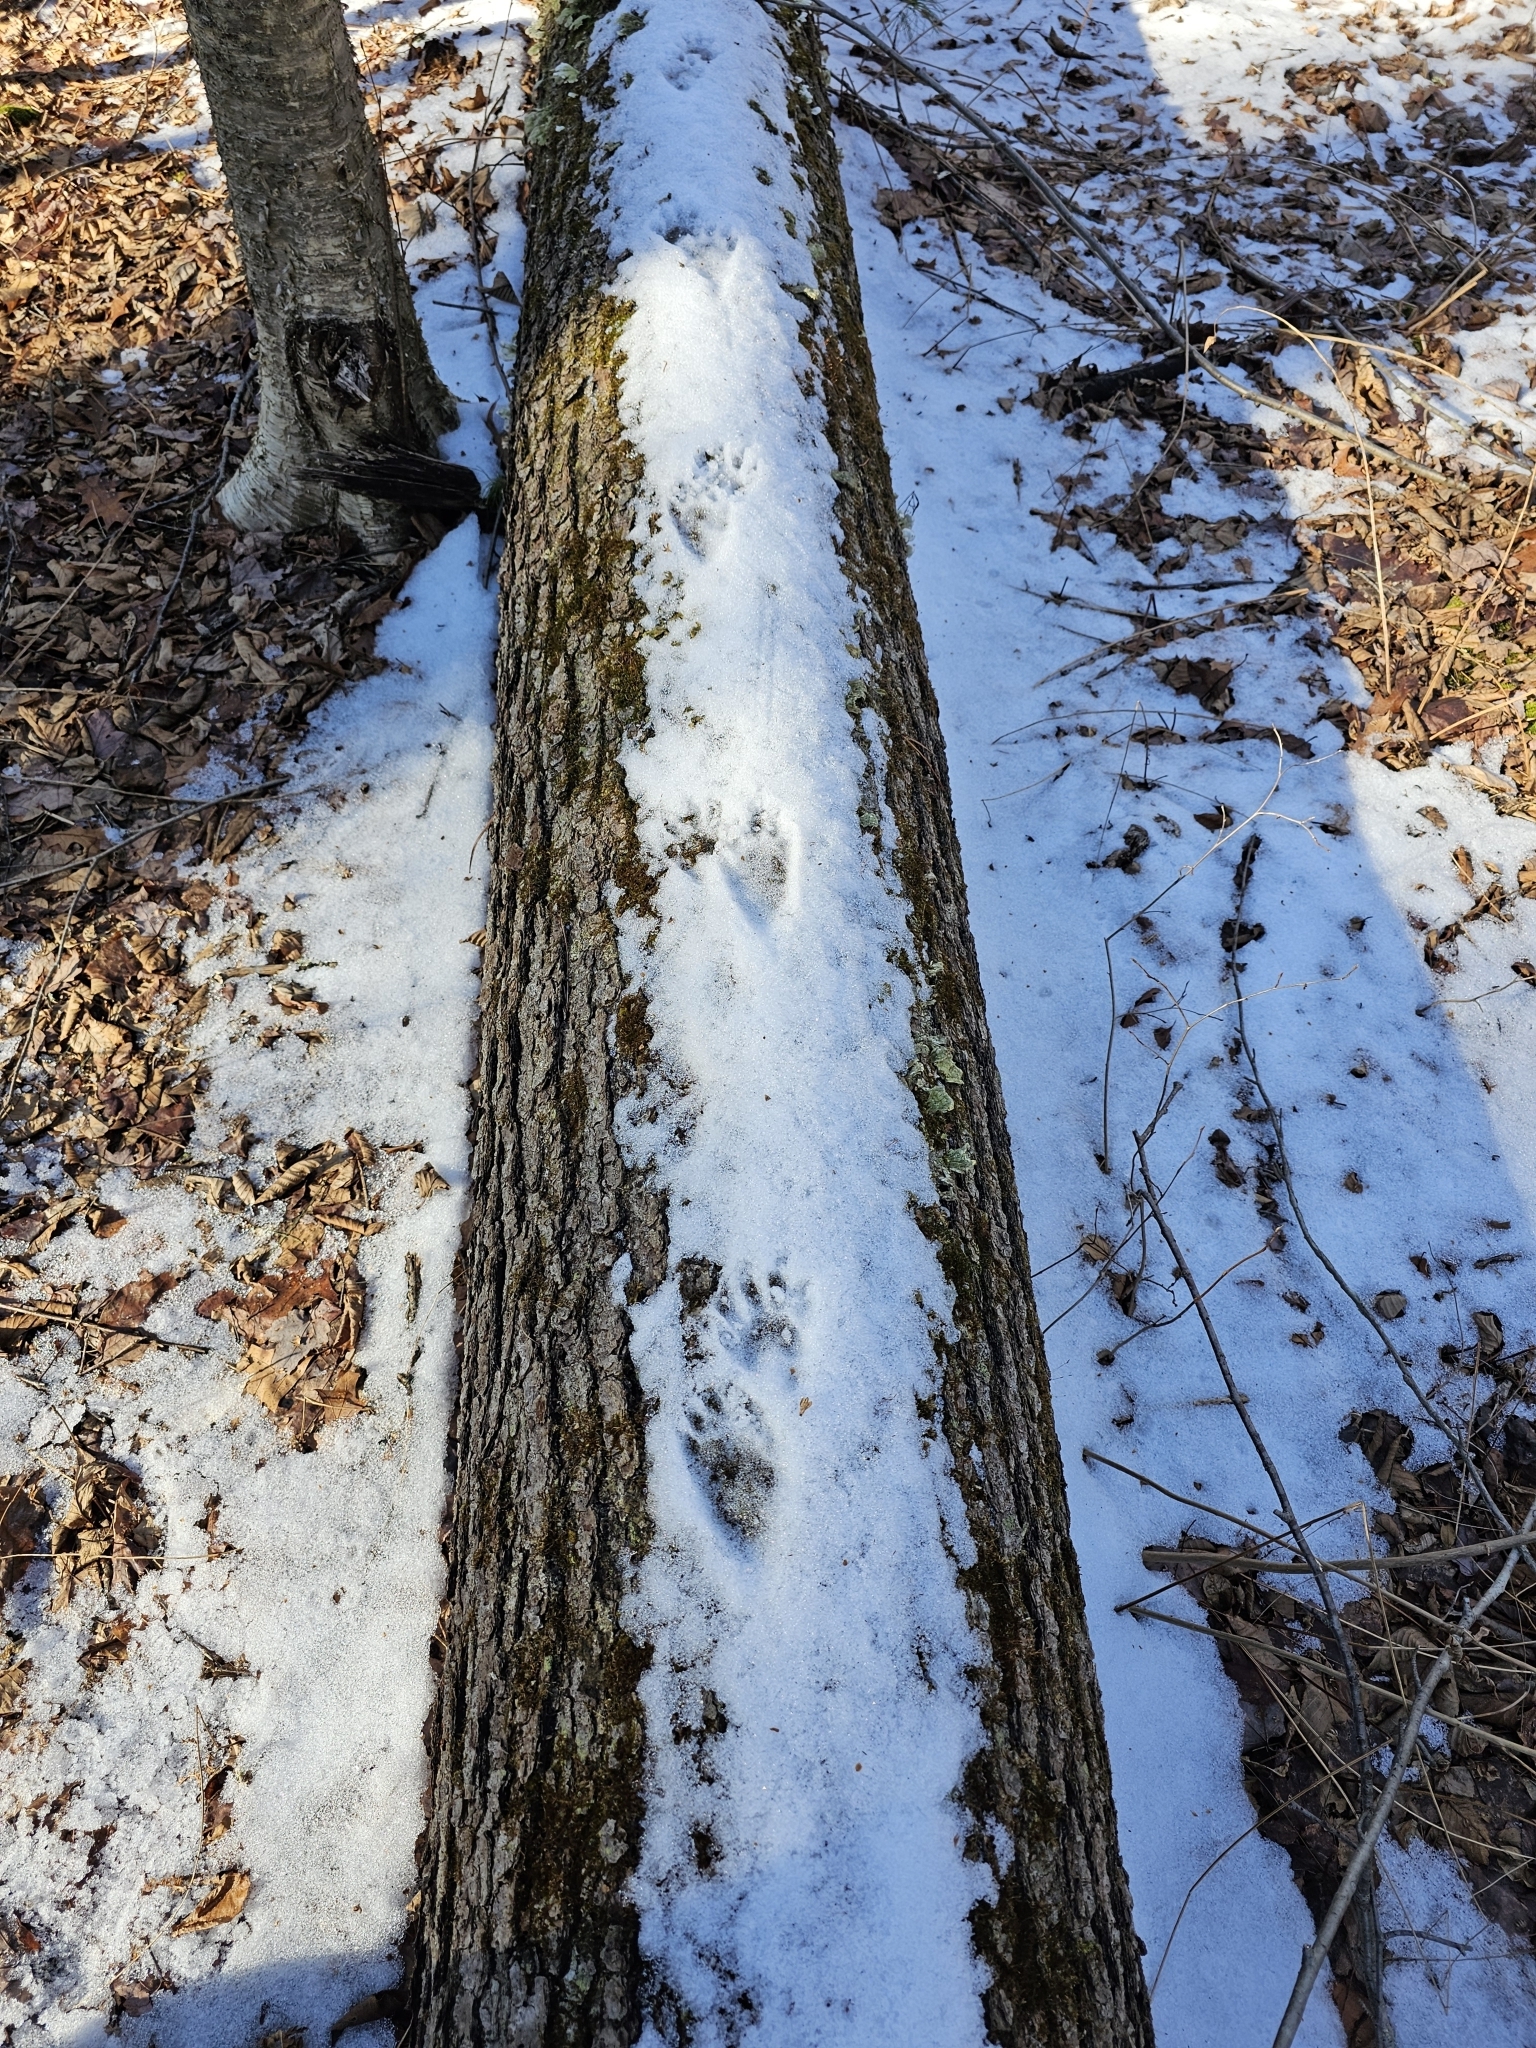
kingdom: Animalia
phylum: Chordata
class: Mammalia
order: Carnivora
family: Procyonidae
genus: Procyon
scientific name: Procyon lotor
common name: Raccoon
